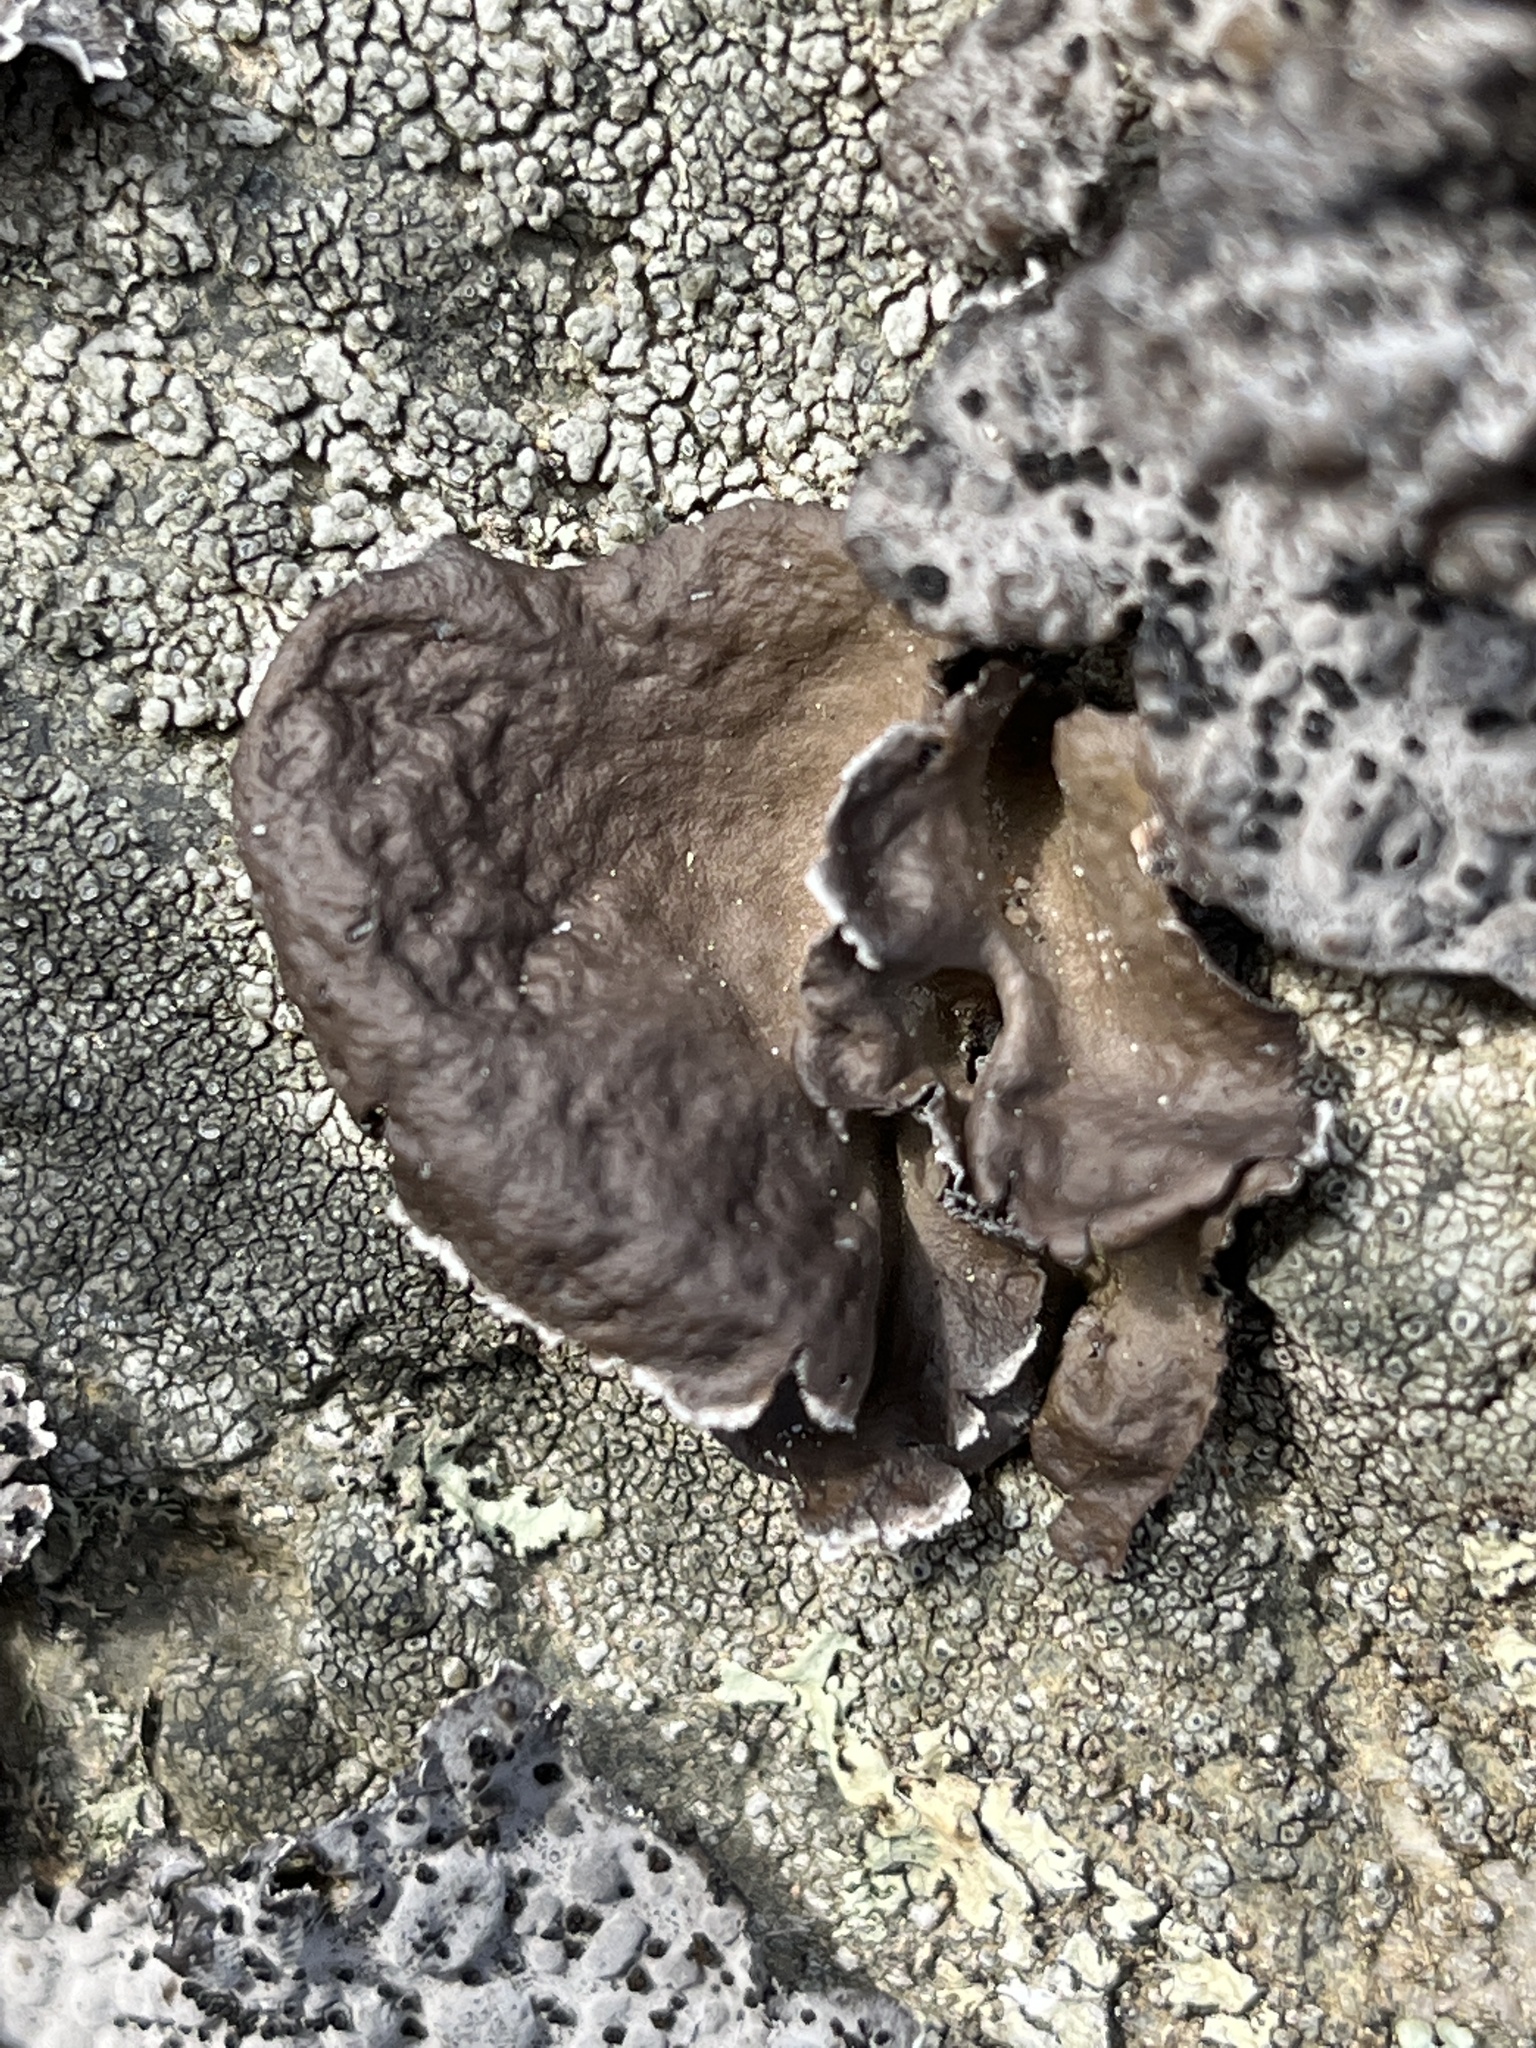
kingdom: Fungi
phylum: Ascomycota
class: Lecanoromycetes
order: Umbilicariales
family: Umbilicariaceae
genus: Umbilicaria
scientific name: Umbilicaria muhlenbergii
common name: Lesser rocktripe
